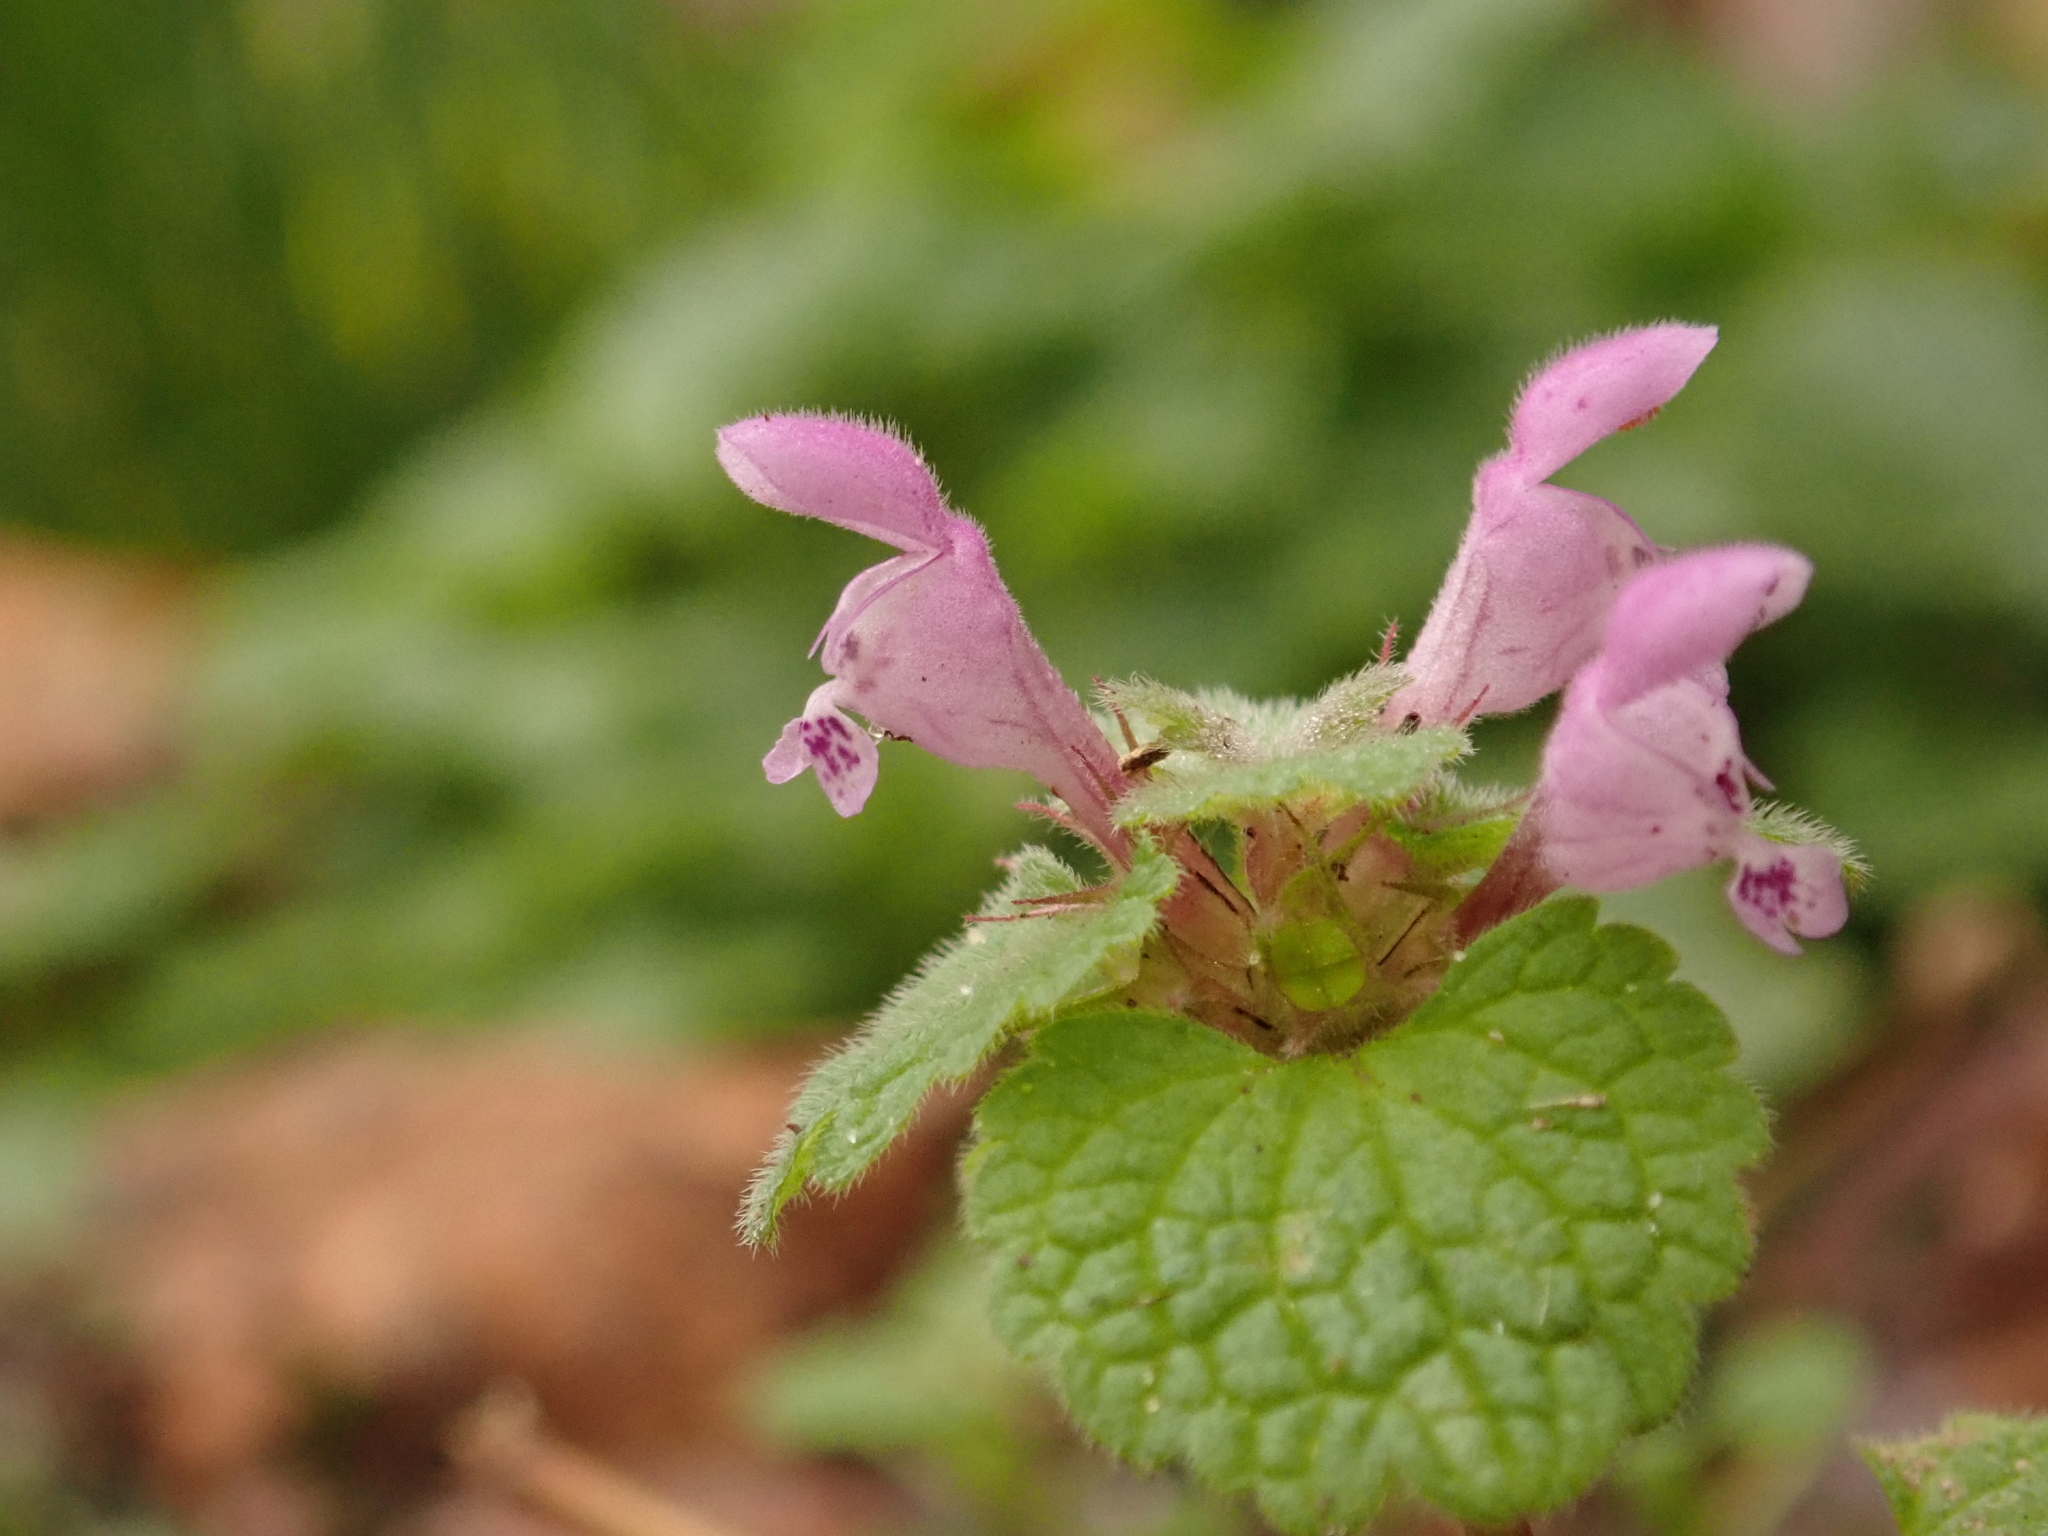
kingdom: Plantae
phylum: Tracheophyta
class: Magnoliopsida
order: Lamiales
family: Lamiaceae
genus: Lamium
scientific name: Lamium purpureum
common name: Red dead-nettle
